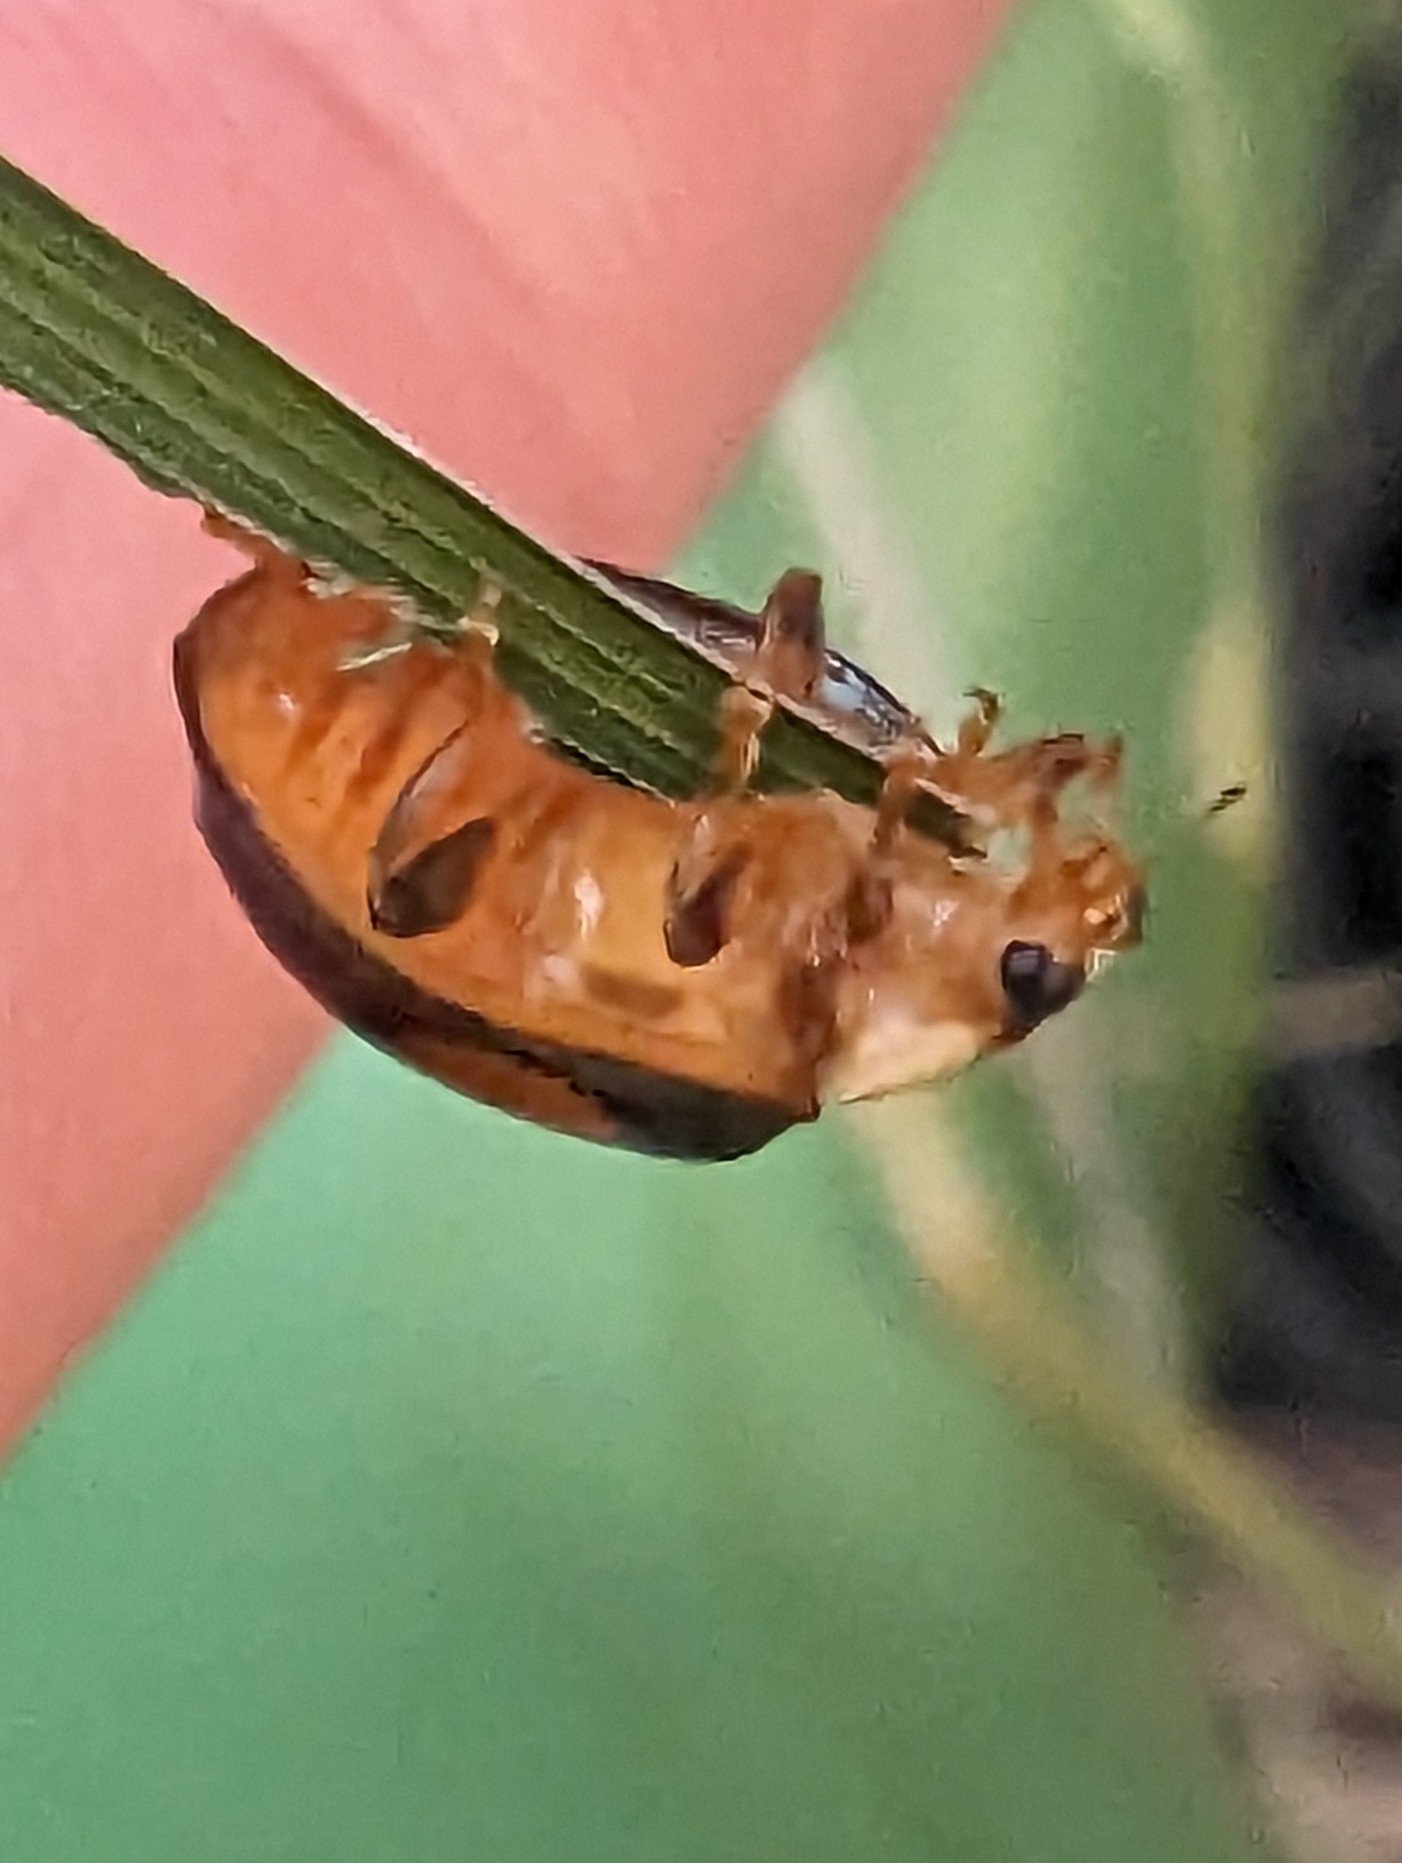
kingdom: Animalia
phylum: Arthropoda
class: Insecta
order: Coleoptera
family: Coccinellidae
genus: Harmonia
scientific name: Harmonia axyridis
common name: Harlequin ladybird
